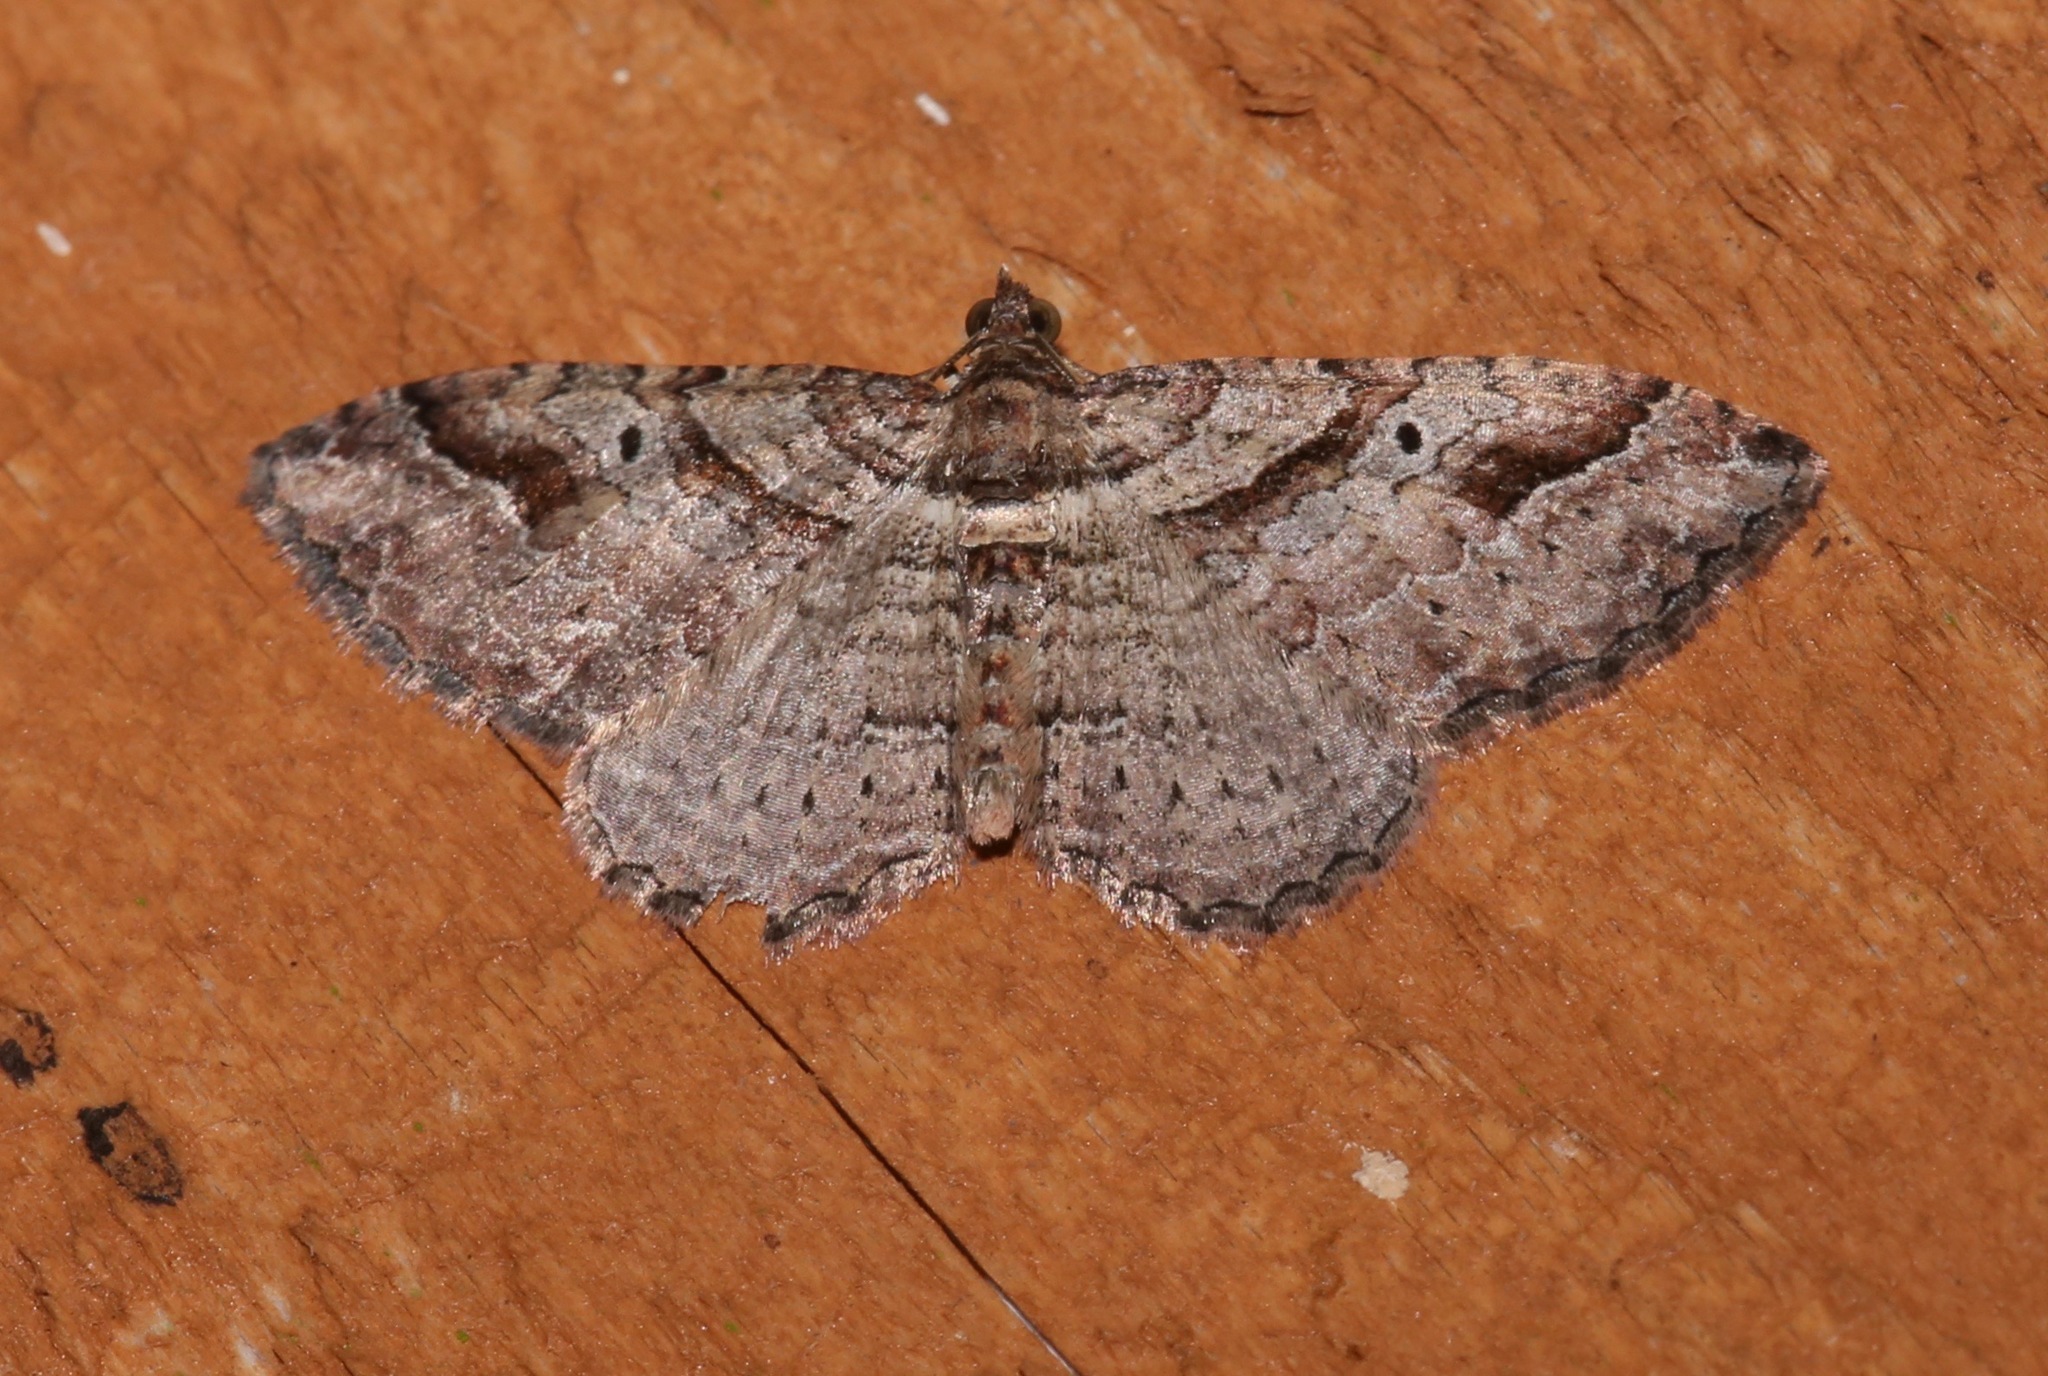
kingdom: Animalia
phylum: Arthropoda
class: Insecta
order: Lepidoptera
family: Geometridae
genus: Costaconvexa
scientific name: Costaconvexa centrostrigaria
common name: Bent-line carpet
